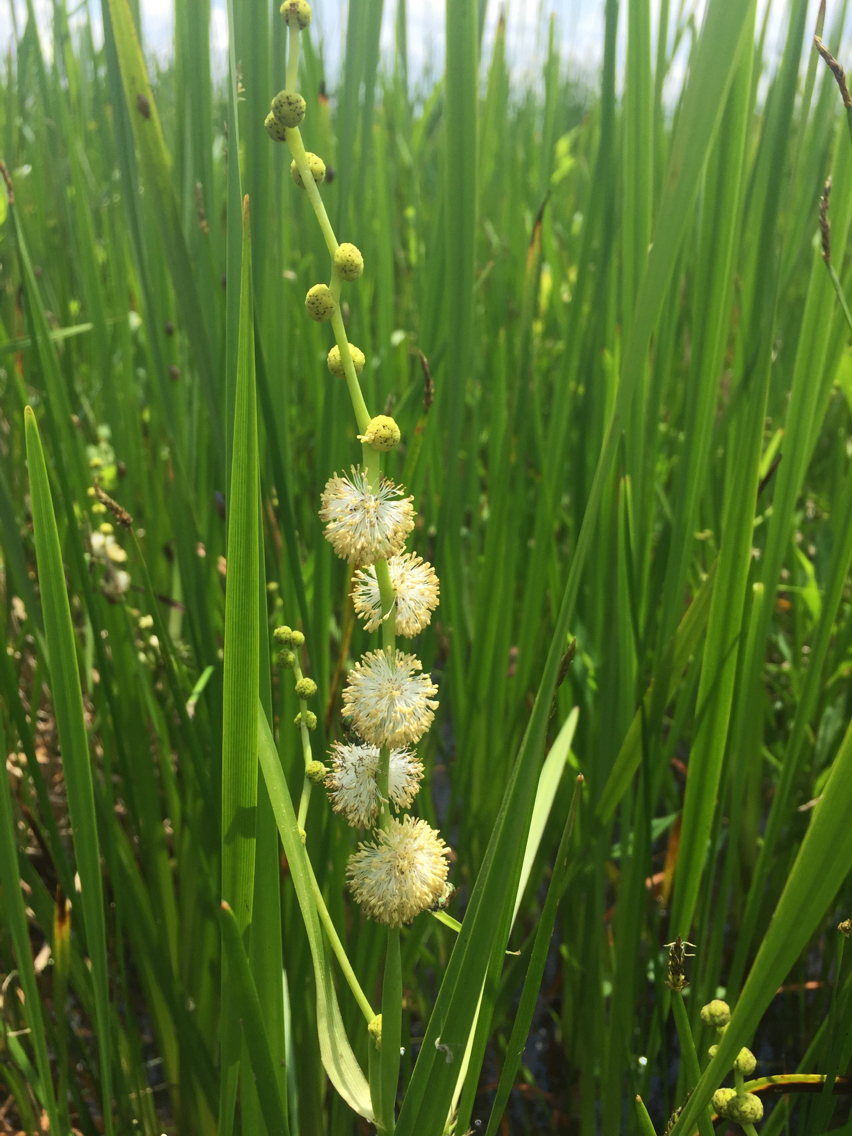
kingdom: Plantae
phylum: Tracheophyta
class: Liliopsida
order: Poales
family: Typhaceae
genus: Sparganium
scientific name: Sparganium eurycarpum
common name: Broad-fruited burreed
